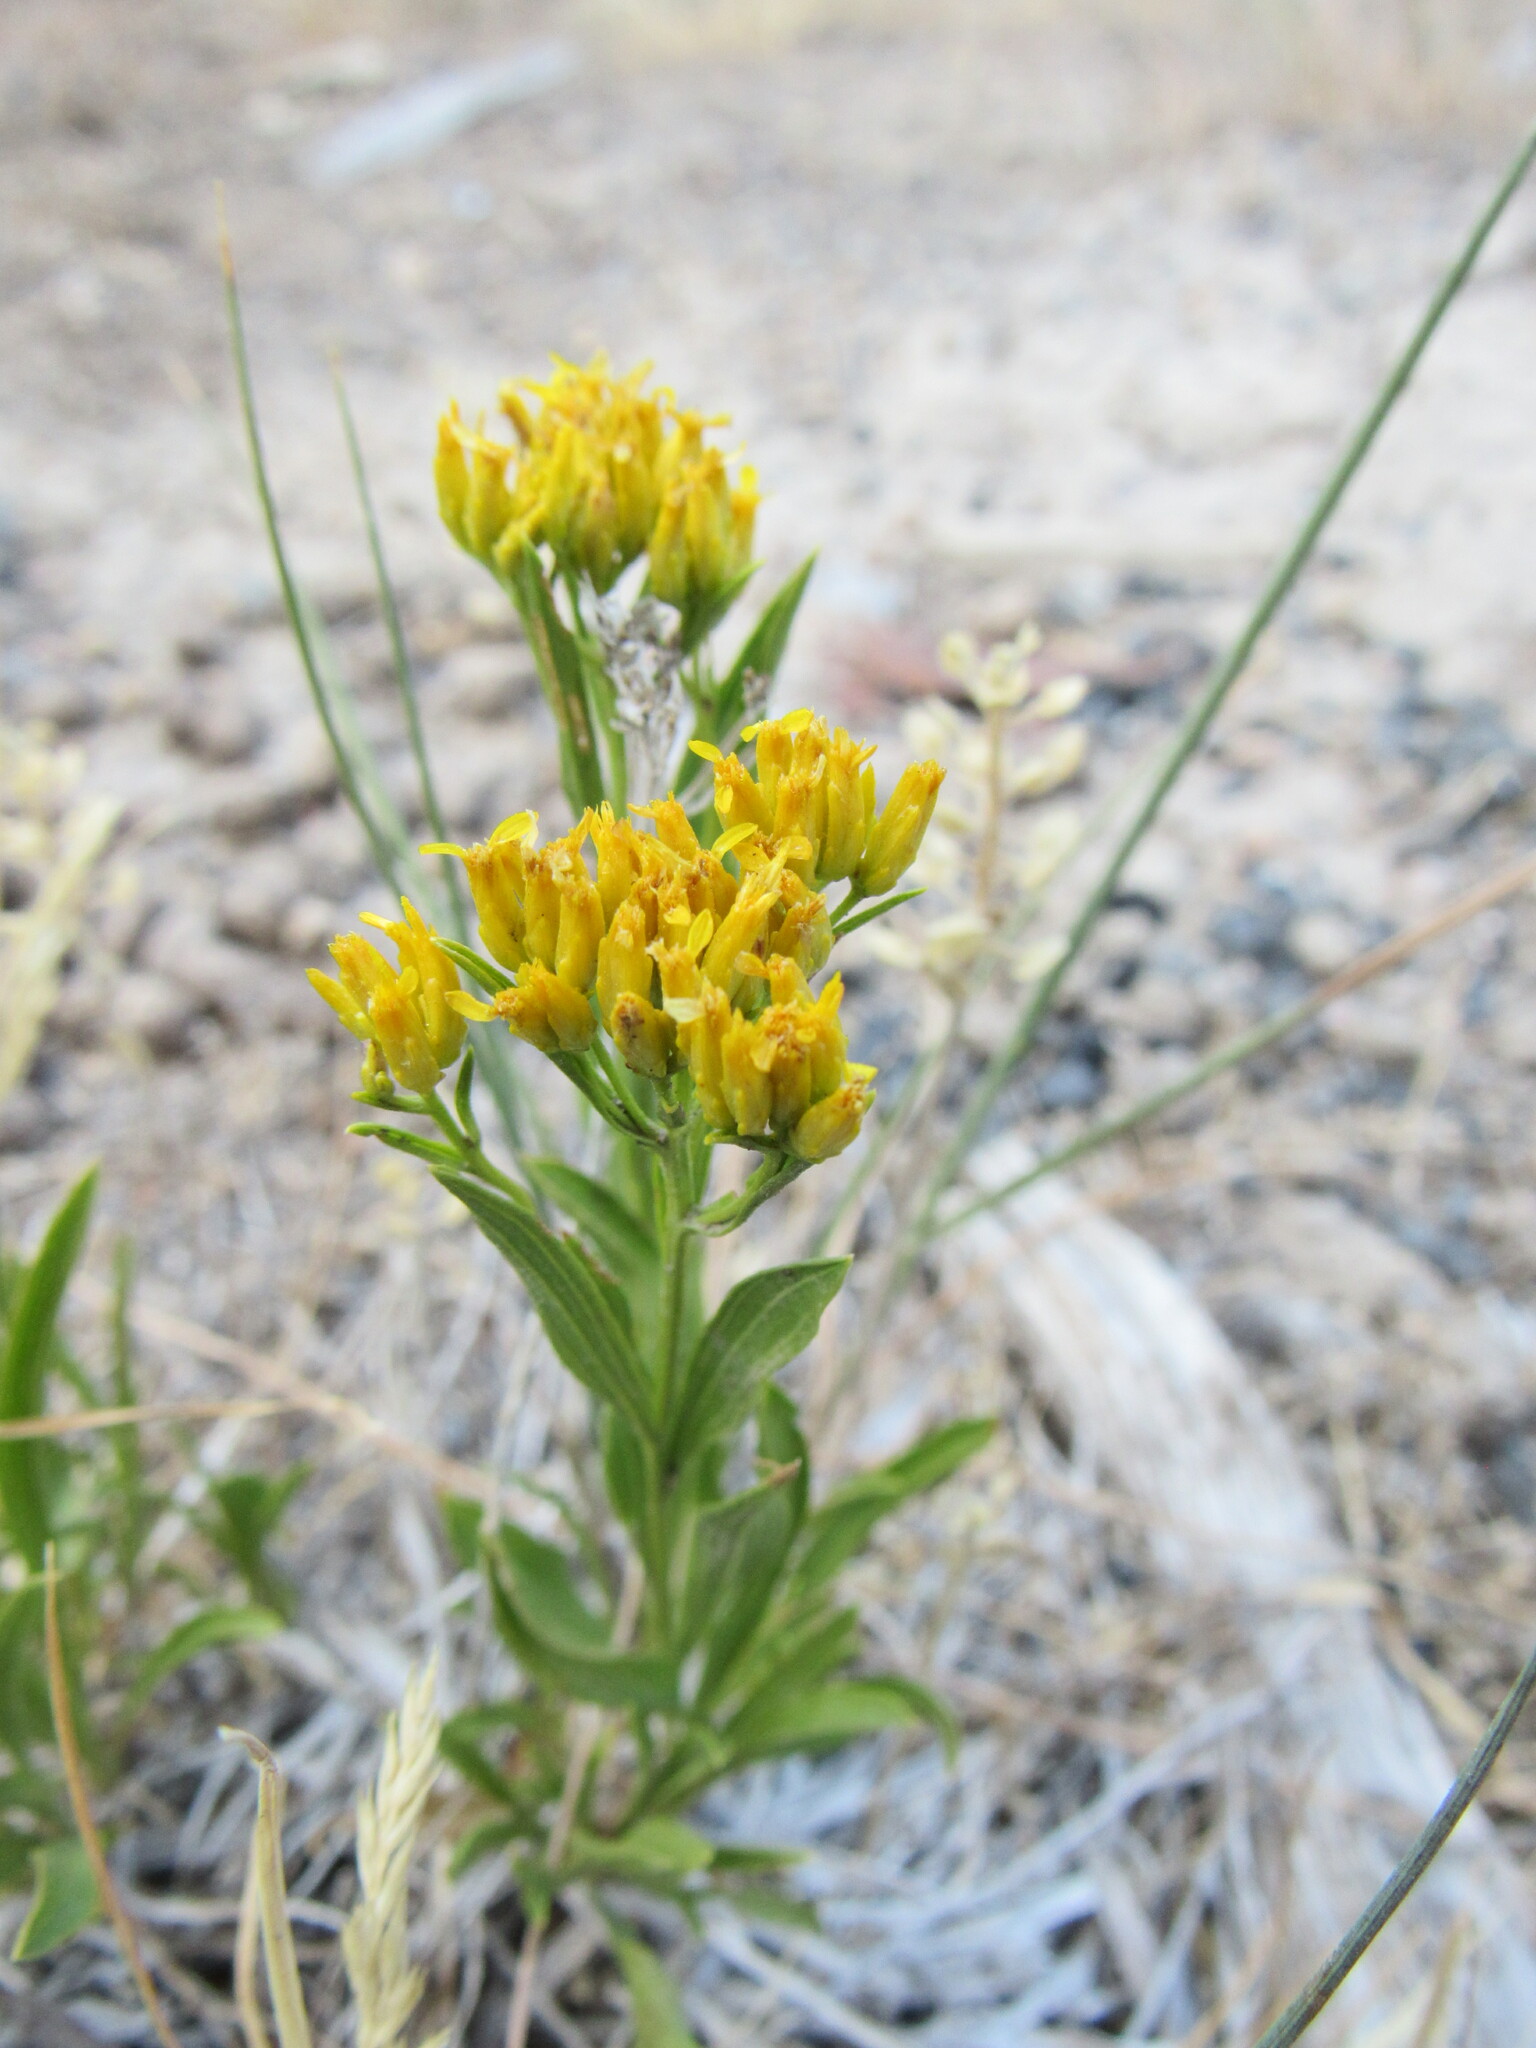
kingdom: Plantae
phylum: Tracheophyta
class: Magnoliopsida
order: Asterales
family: Asteraceae
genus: Petradoria
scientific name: Petradoria pumila
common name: Rock-goldenrod
